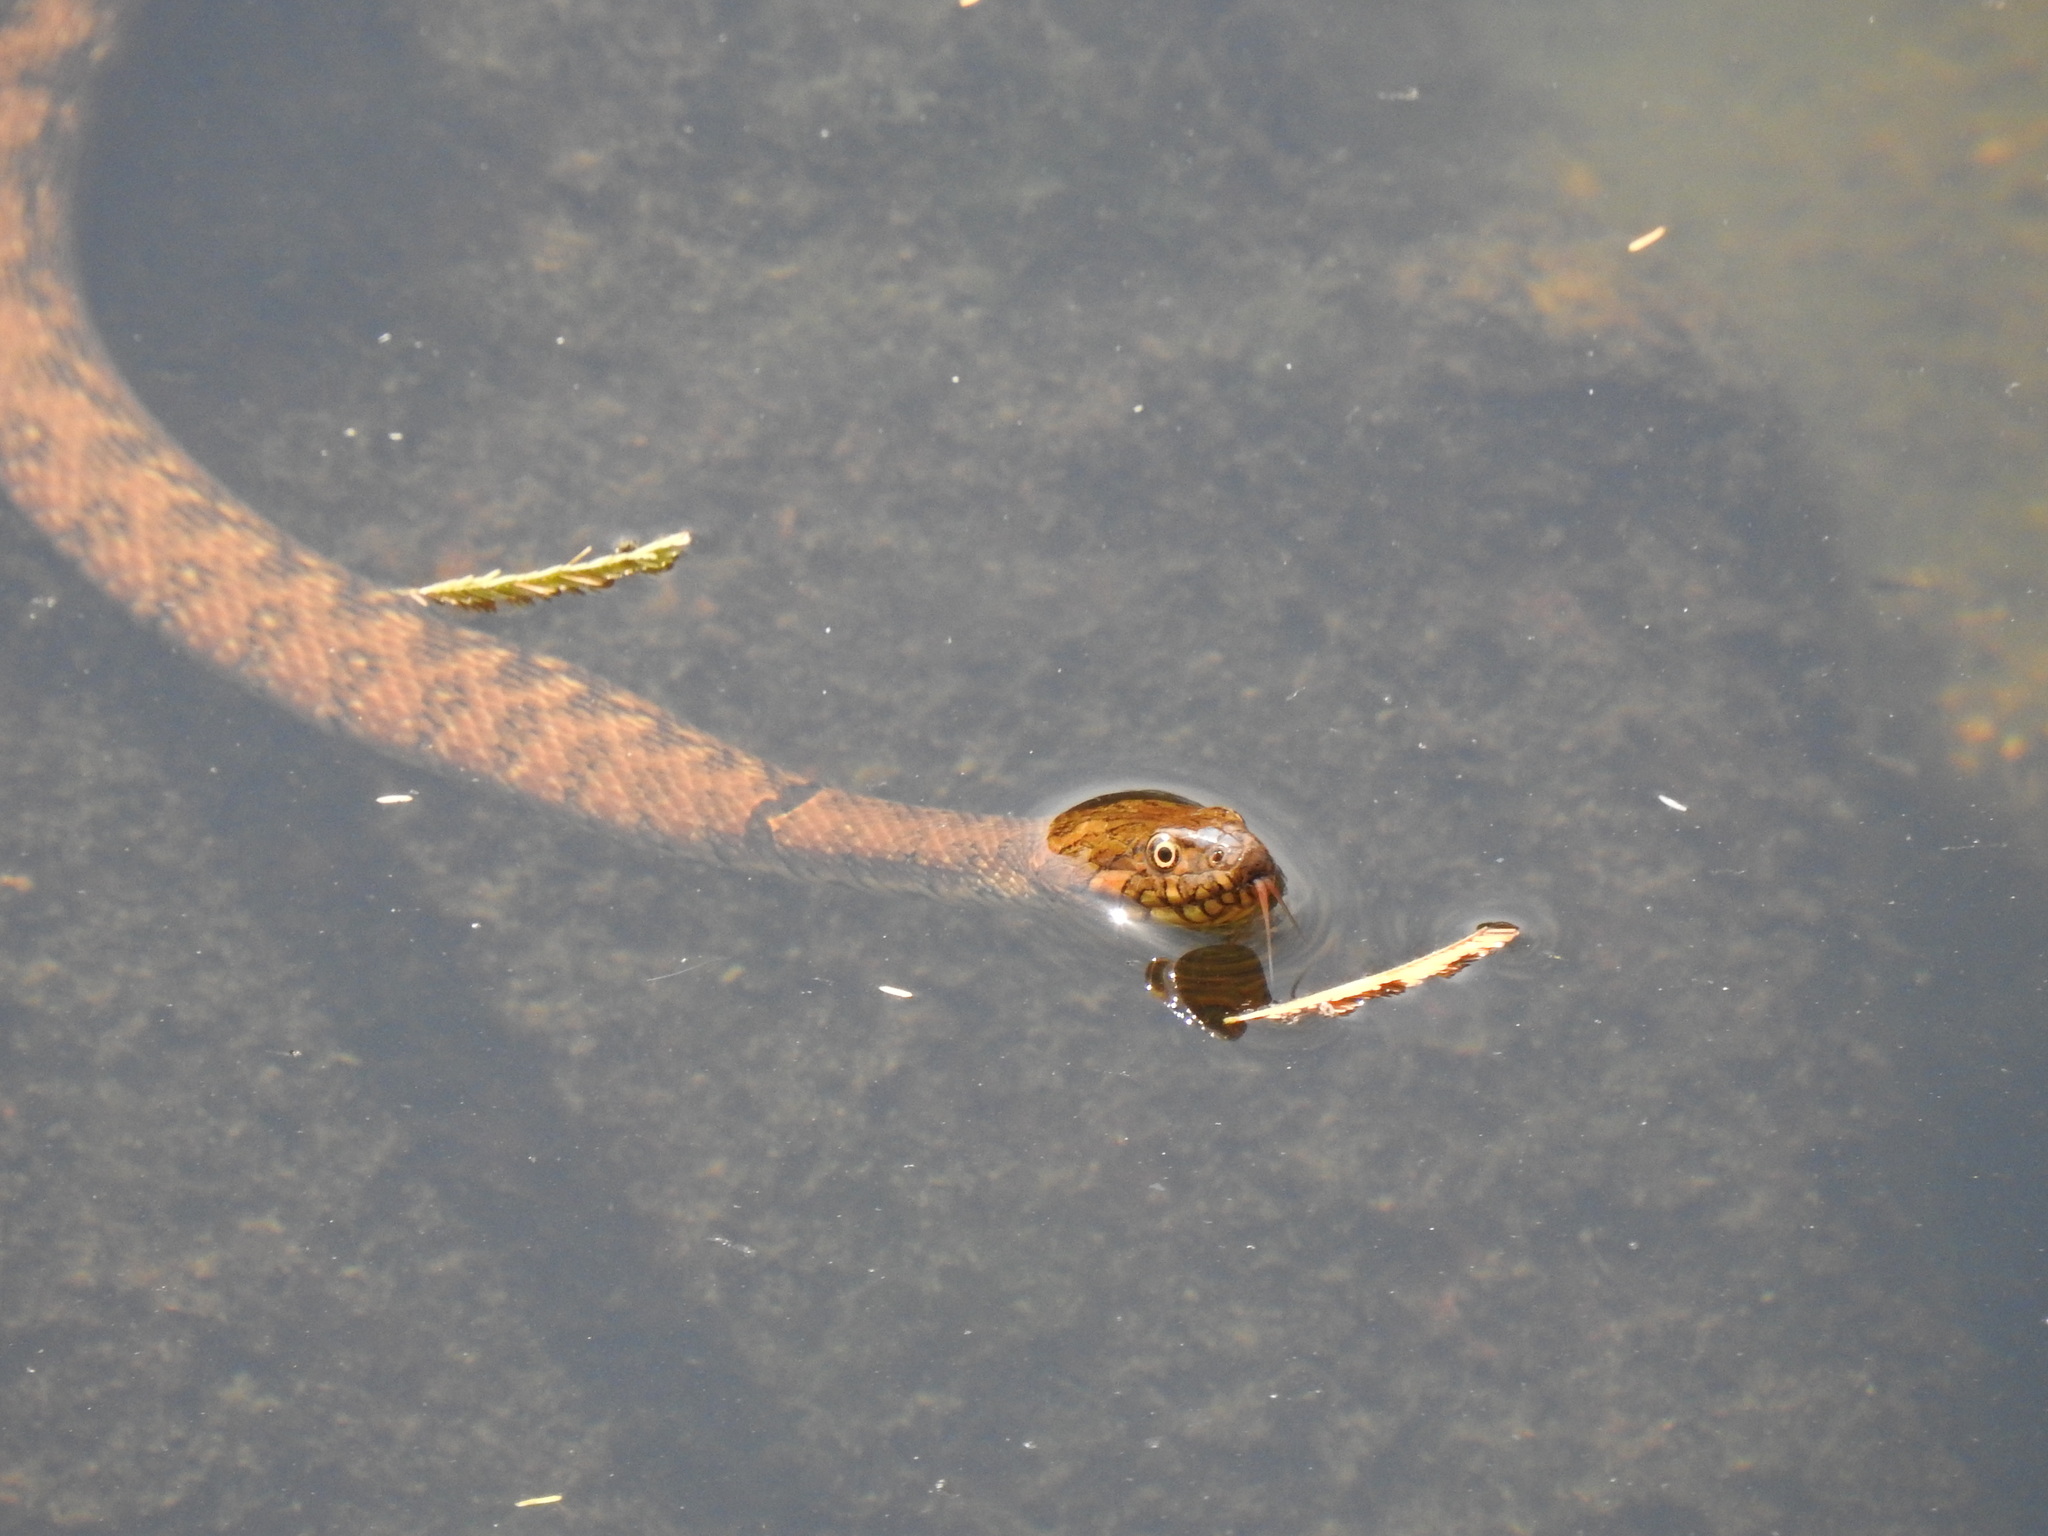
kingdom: Animalia
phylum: Chordata
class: Squamata
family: Colubridae
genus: Natrix
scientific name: Natrix maura
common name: Viperine water snake
